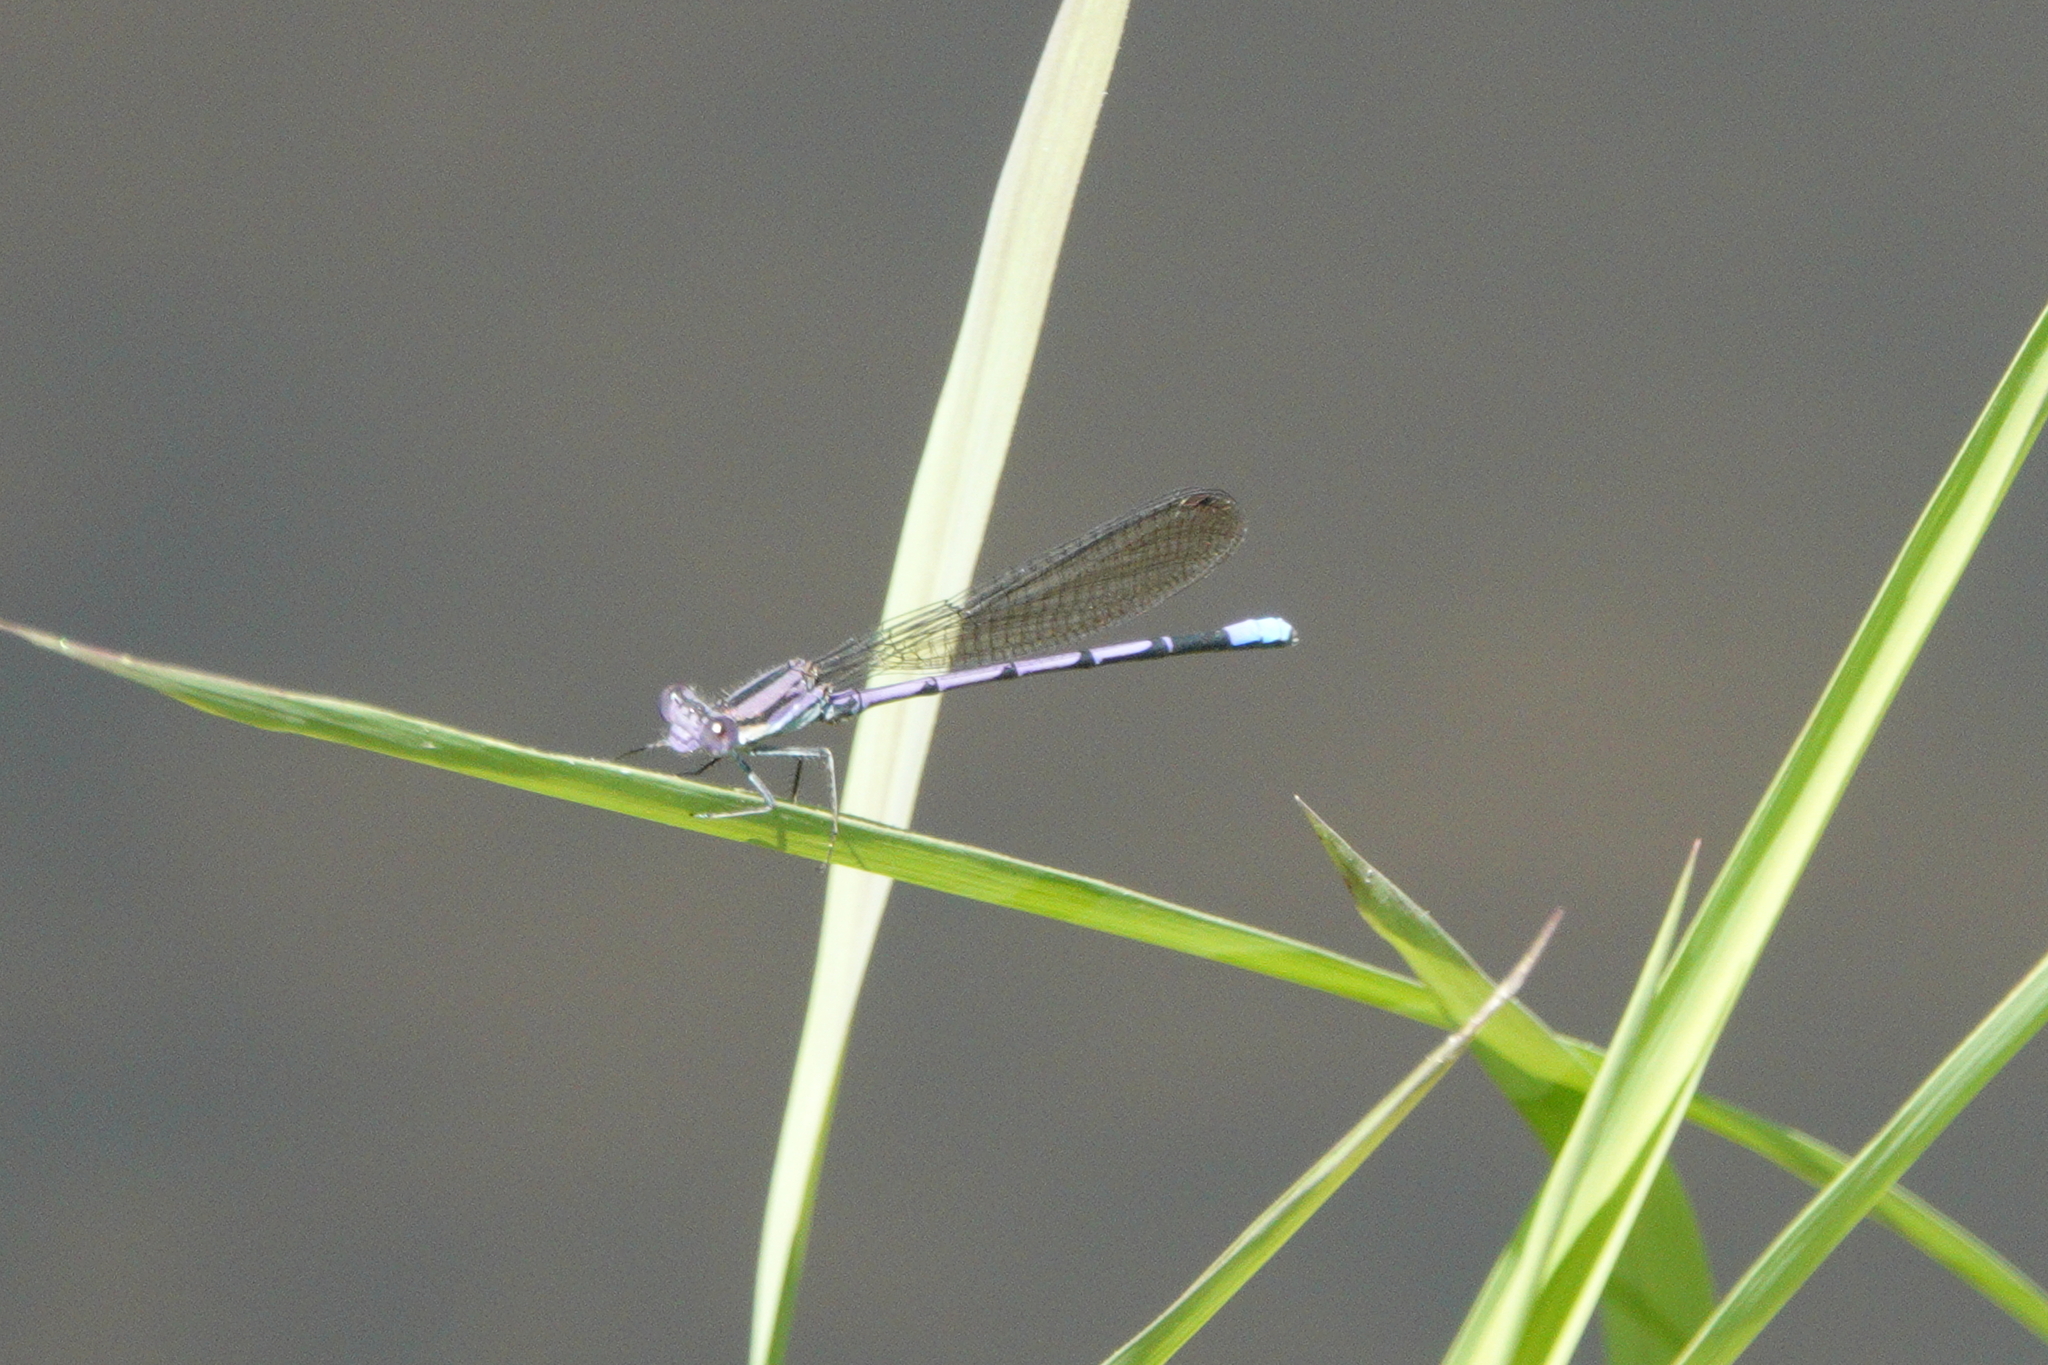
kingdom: Animalia
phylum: Arthropoda
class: Insecta
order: Odonata
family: Coenagrionidae
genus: Argia
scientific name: Argia fumipennis
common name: Variable dancer
